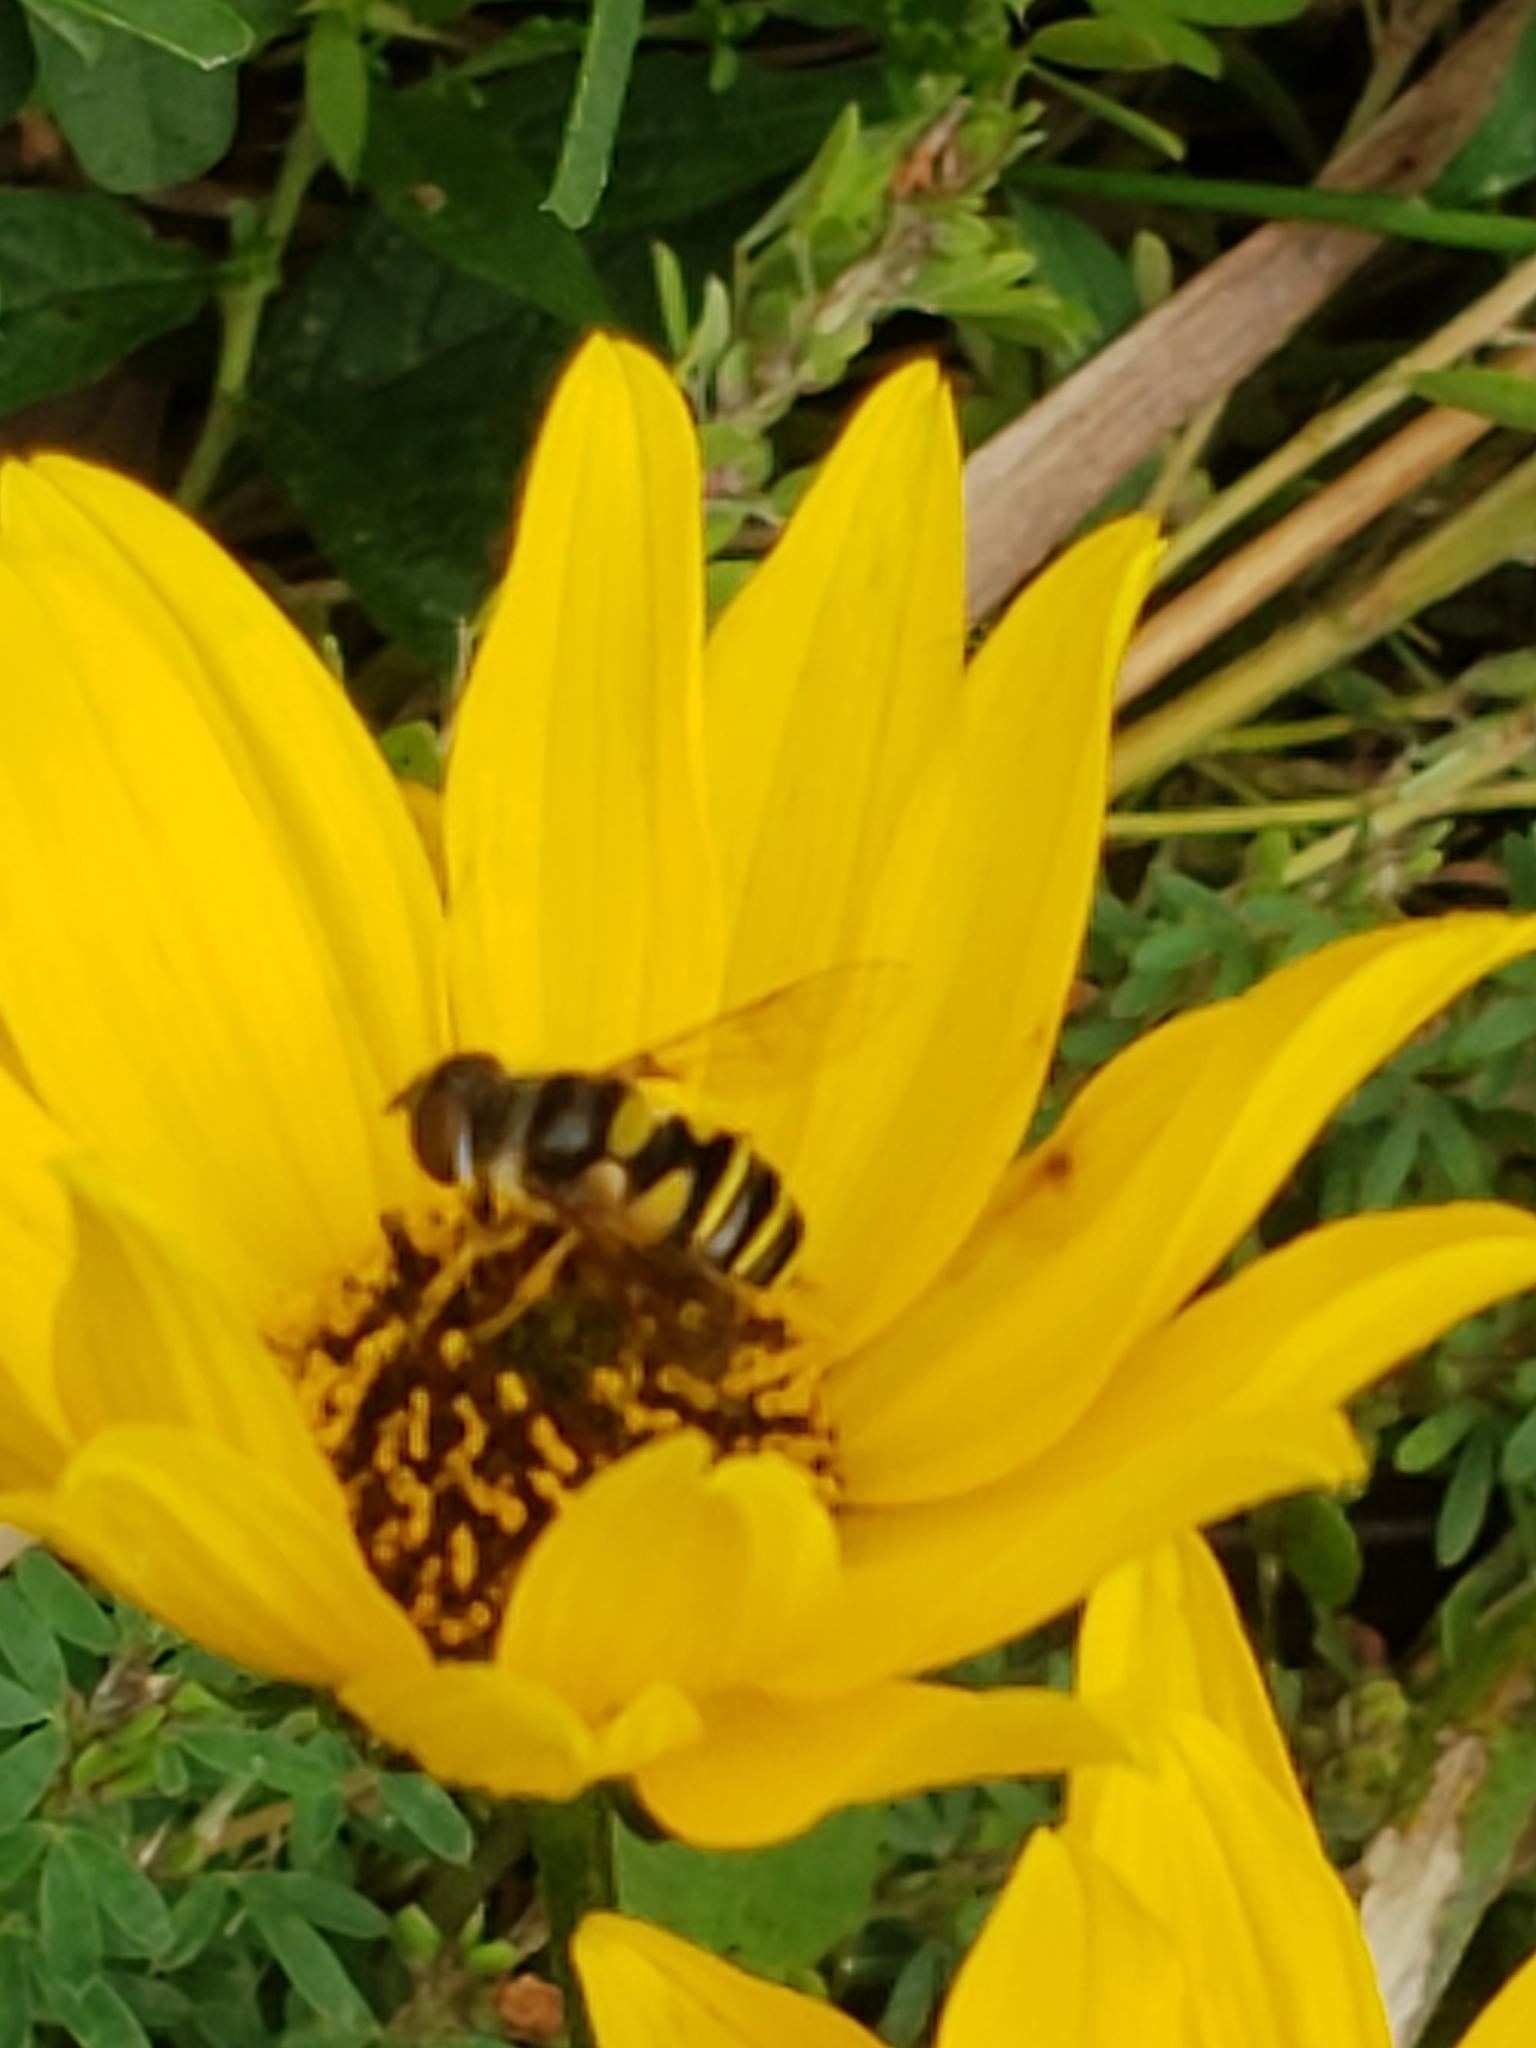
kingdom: Animalia
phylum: Arthropoda
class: Insecta
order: Diptera
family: Syrphidae
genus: Eristalis
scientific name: Eristalis transversa
